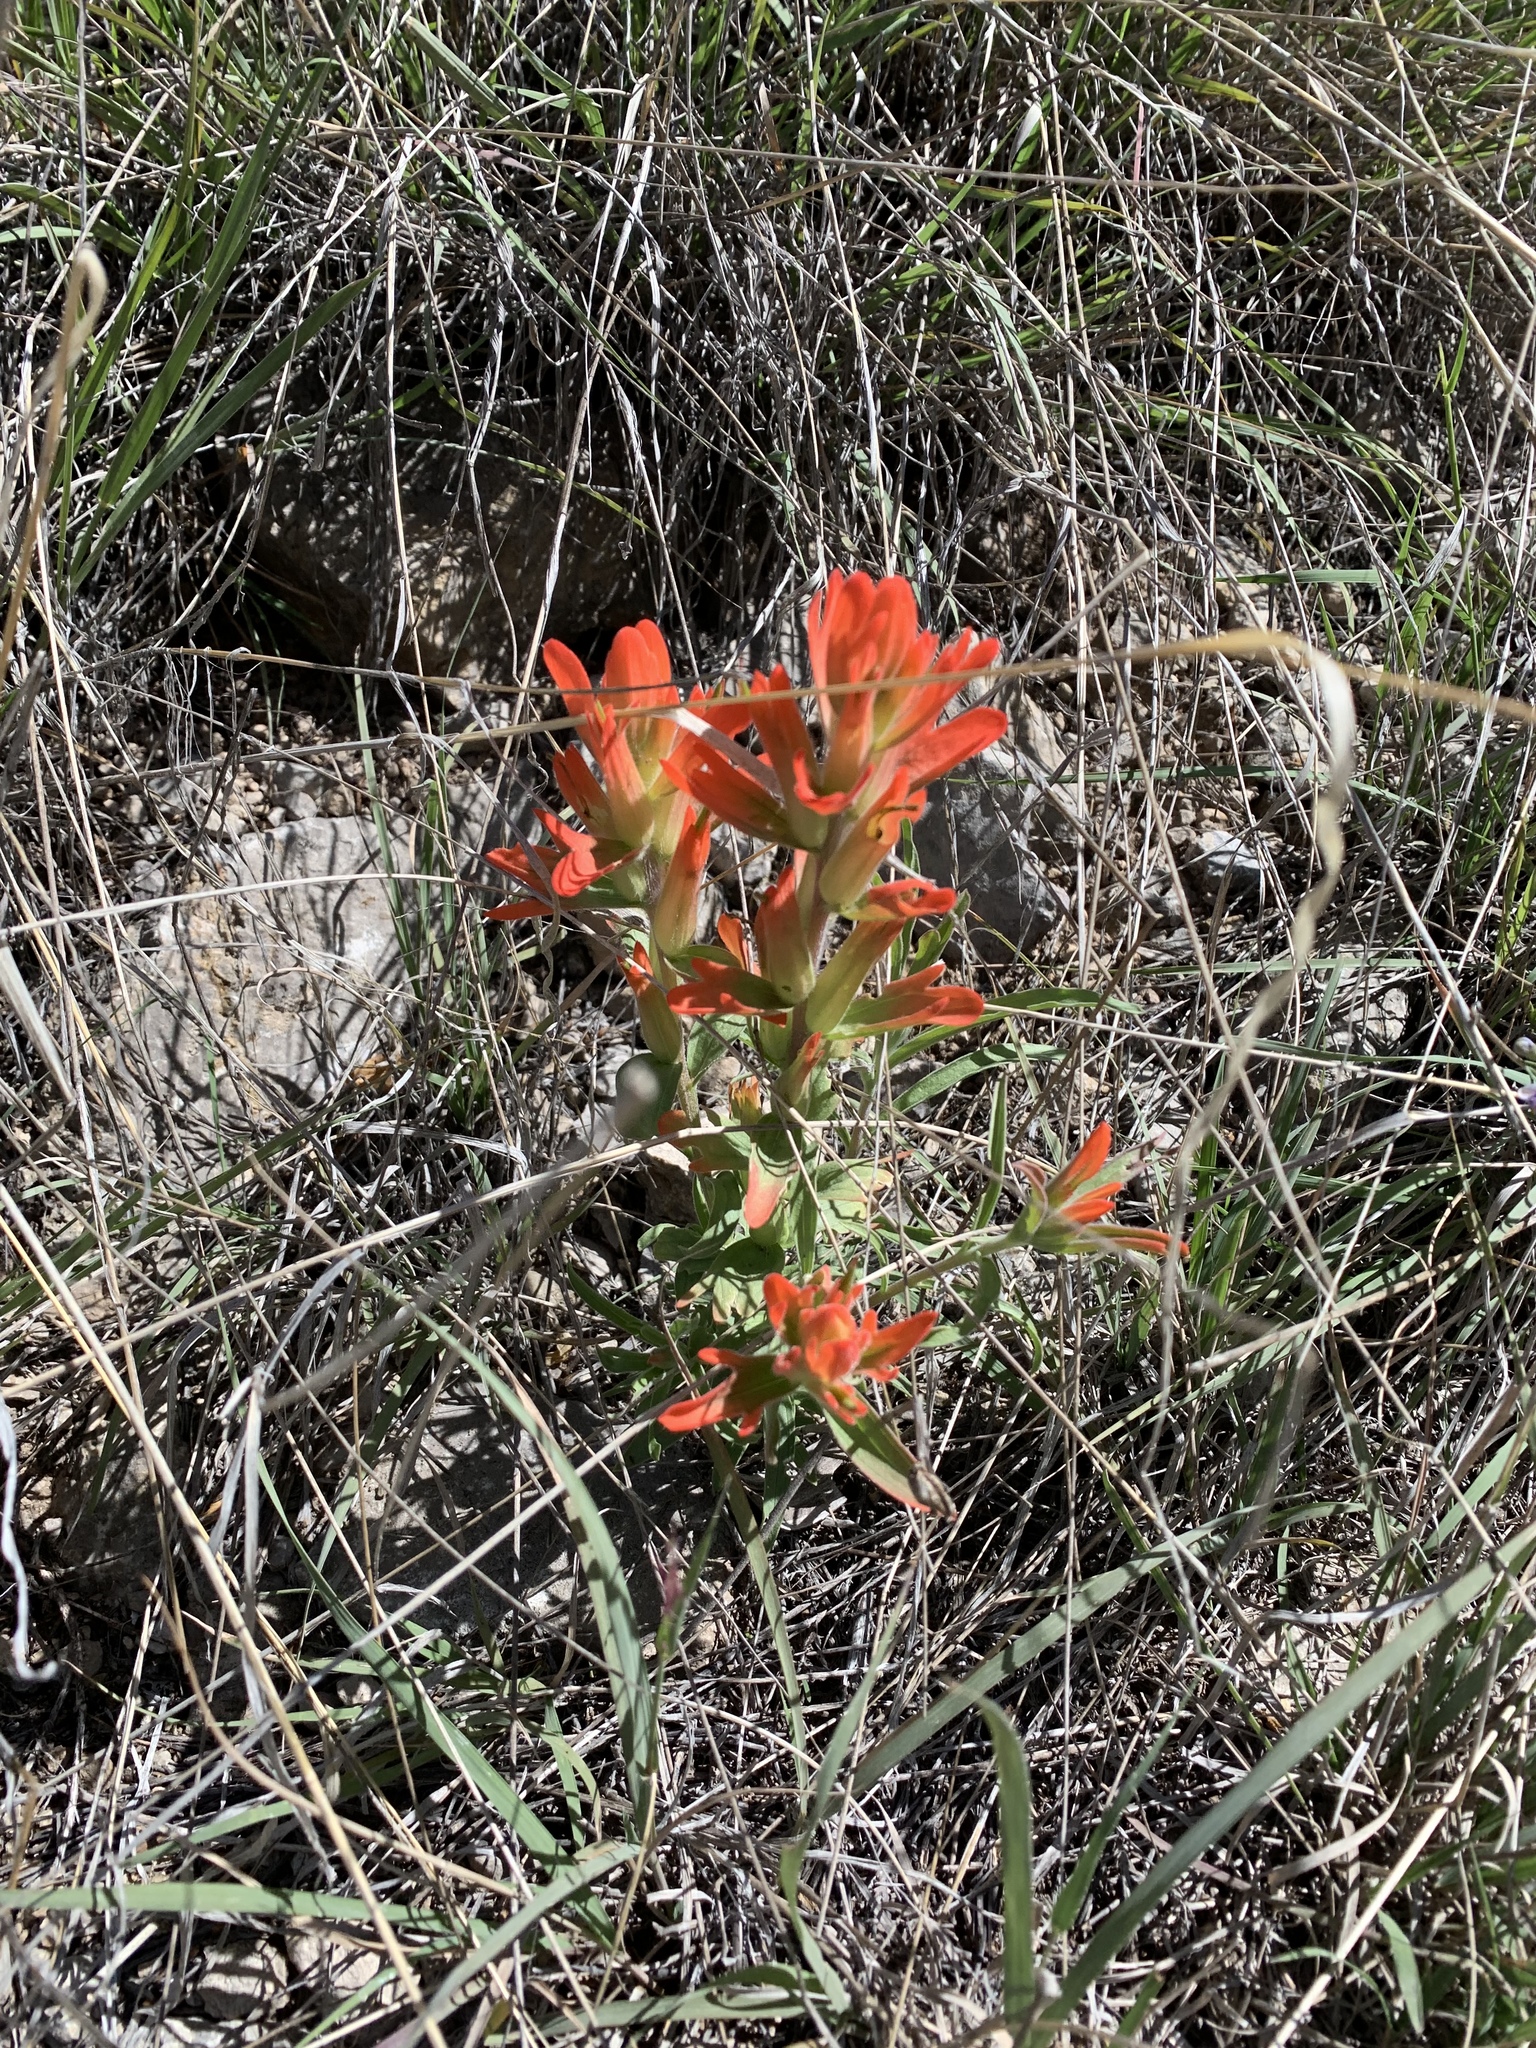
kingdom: Plantae
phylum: Tracheophyta
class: Magnoliopsida
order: Lamiales
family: Orobanchaceae
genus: Castilleja
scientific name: Castilleja integra
